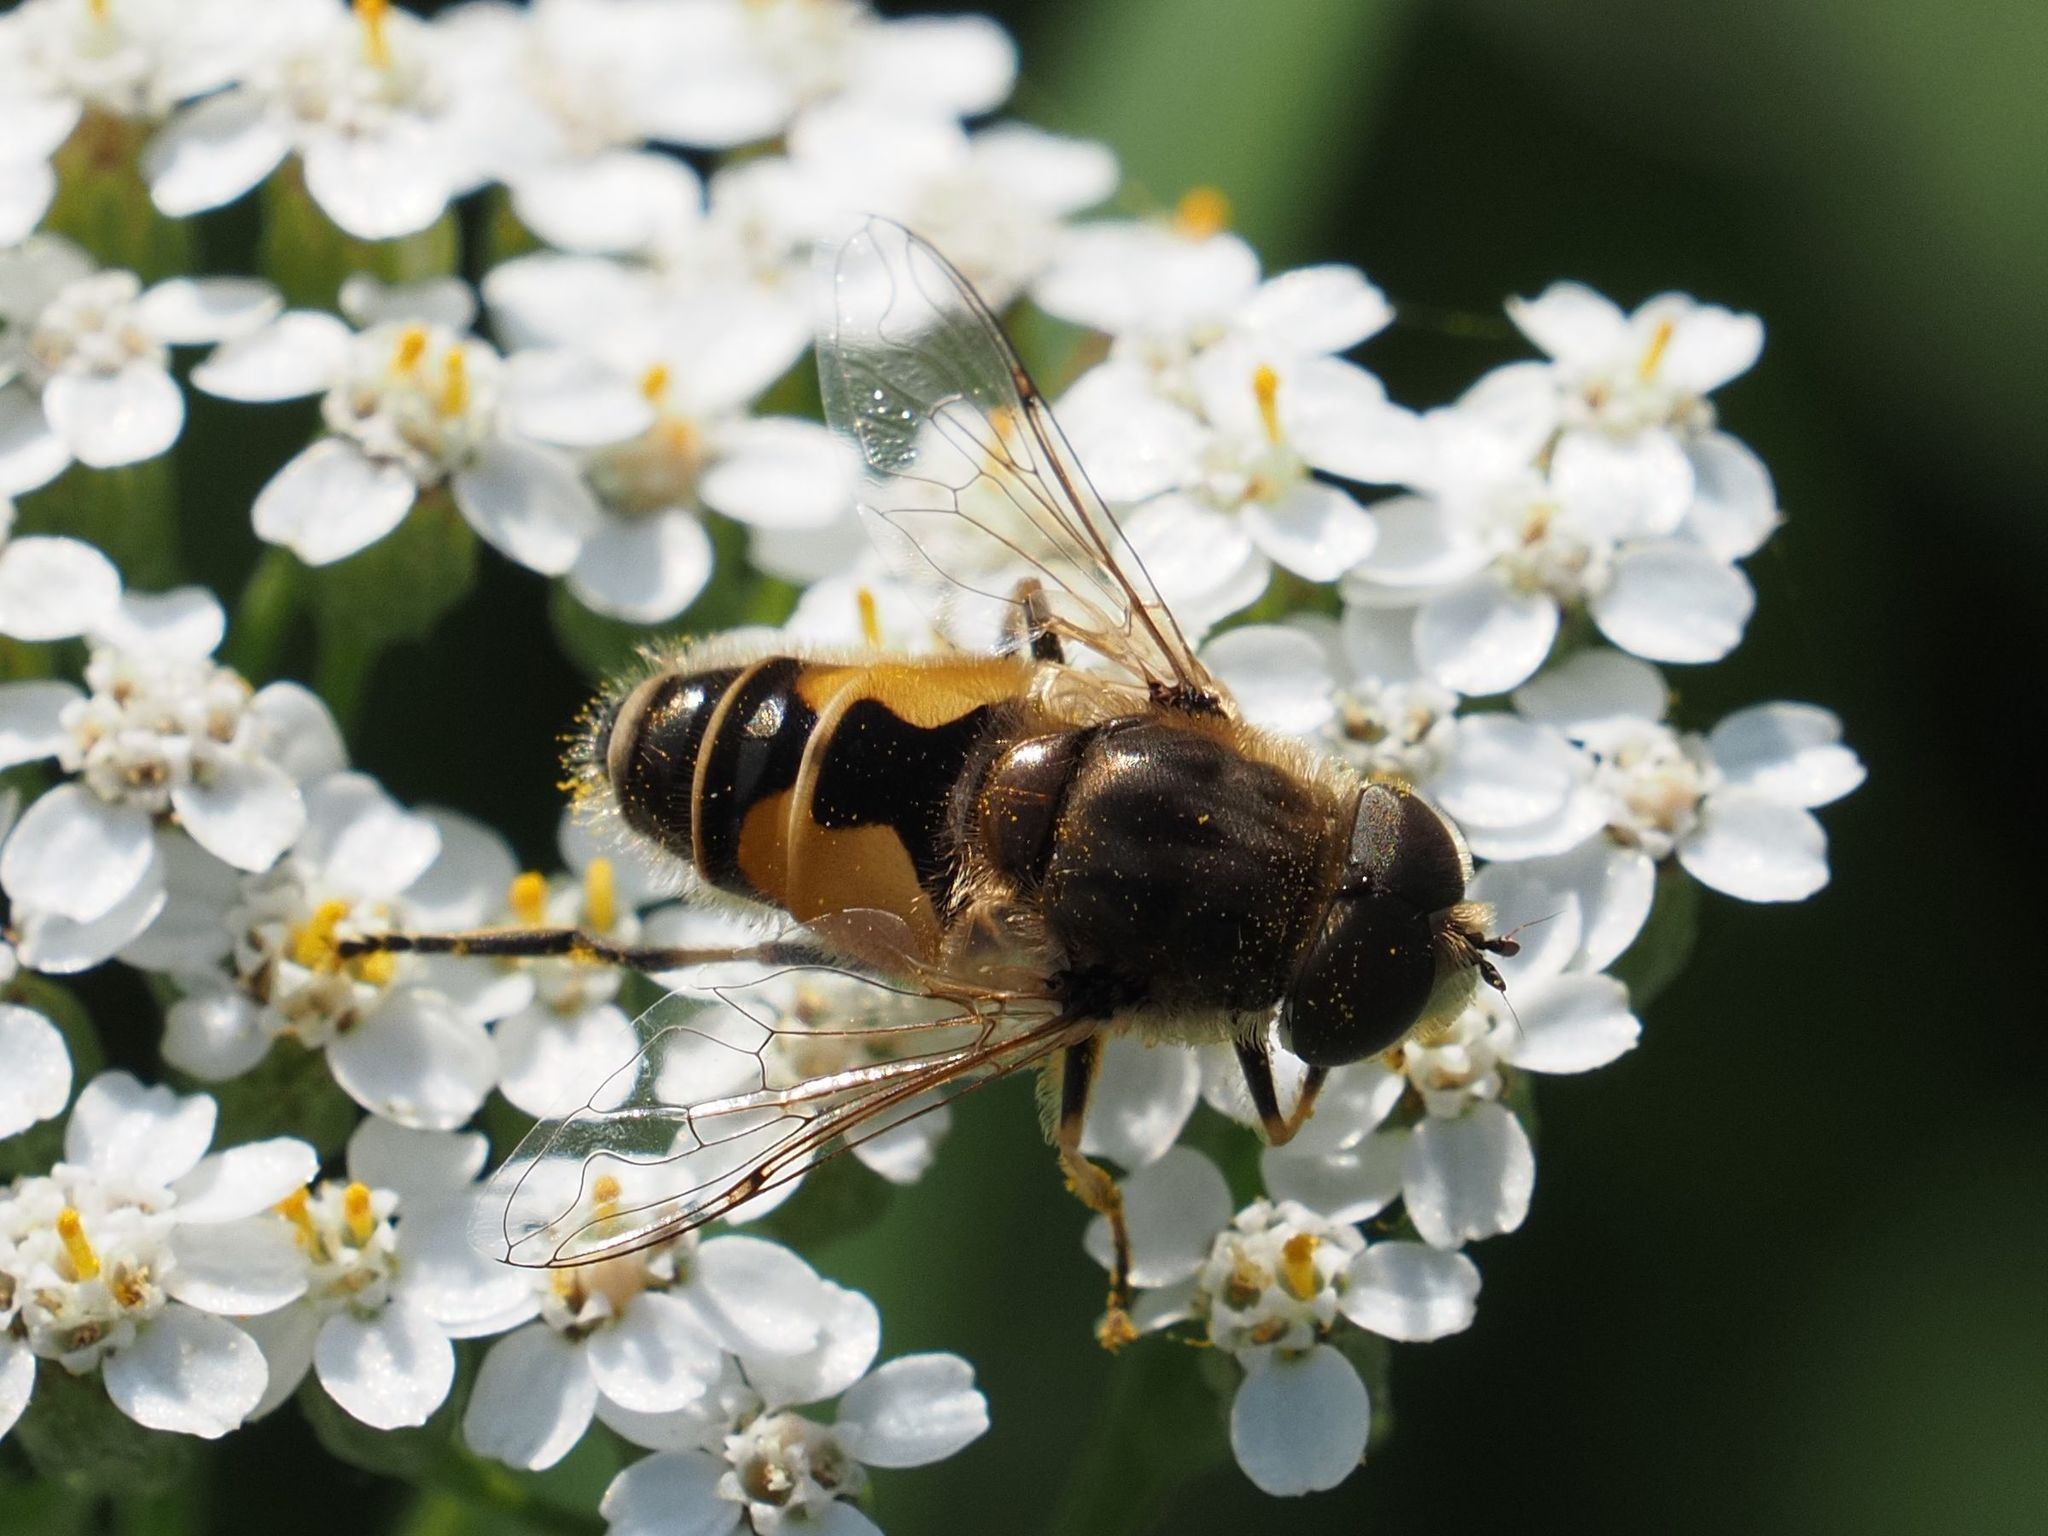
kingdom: Animalia
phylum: Arthropoda
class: Insecta
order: Diptera
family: Syrphidae
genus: Eristalis
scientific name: Eristalis arbustorum
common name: Hover fly
